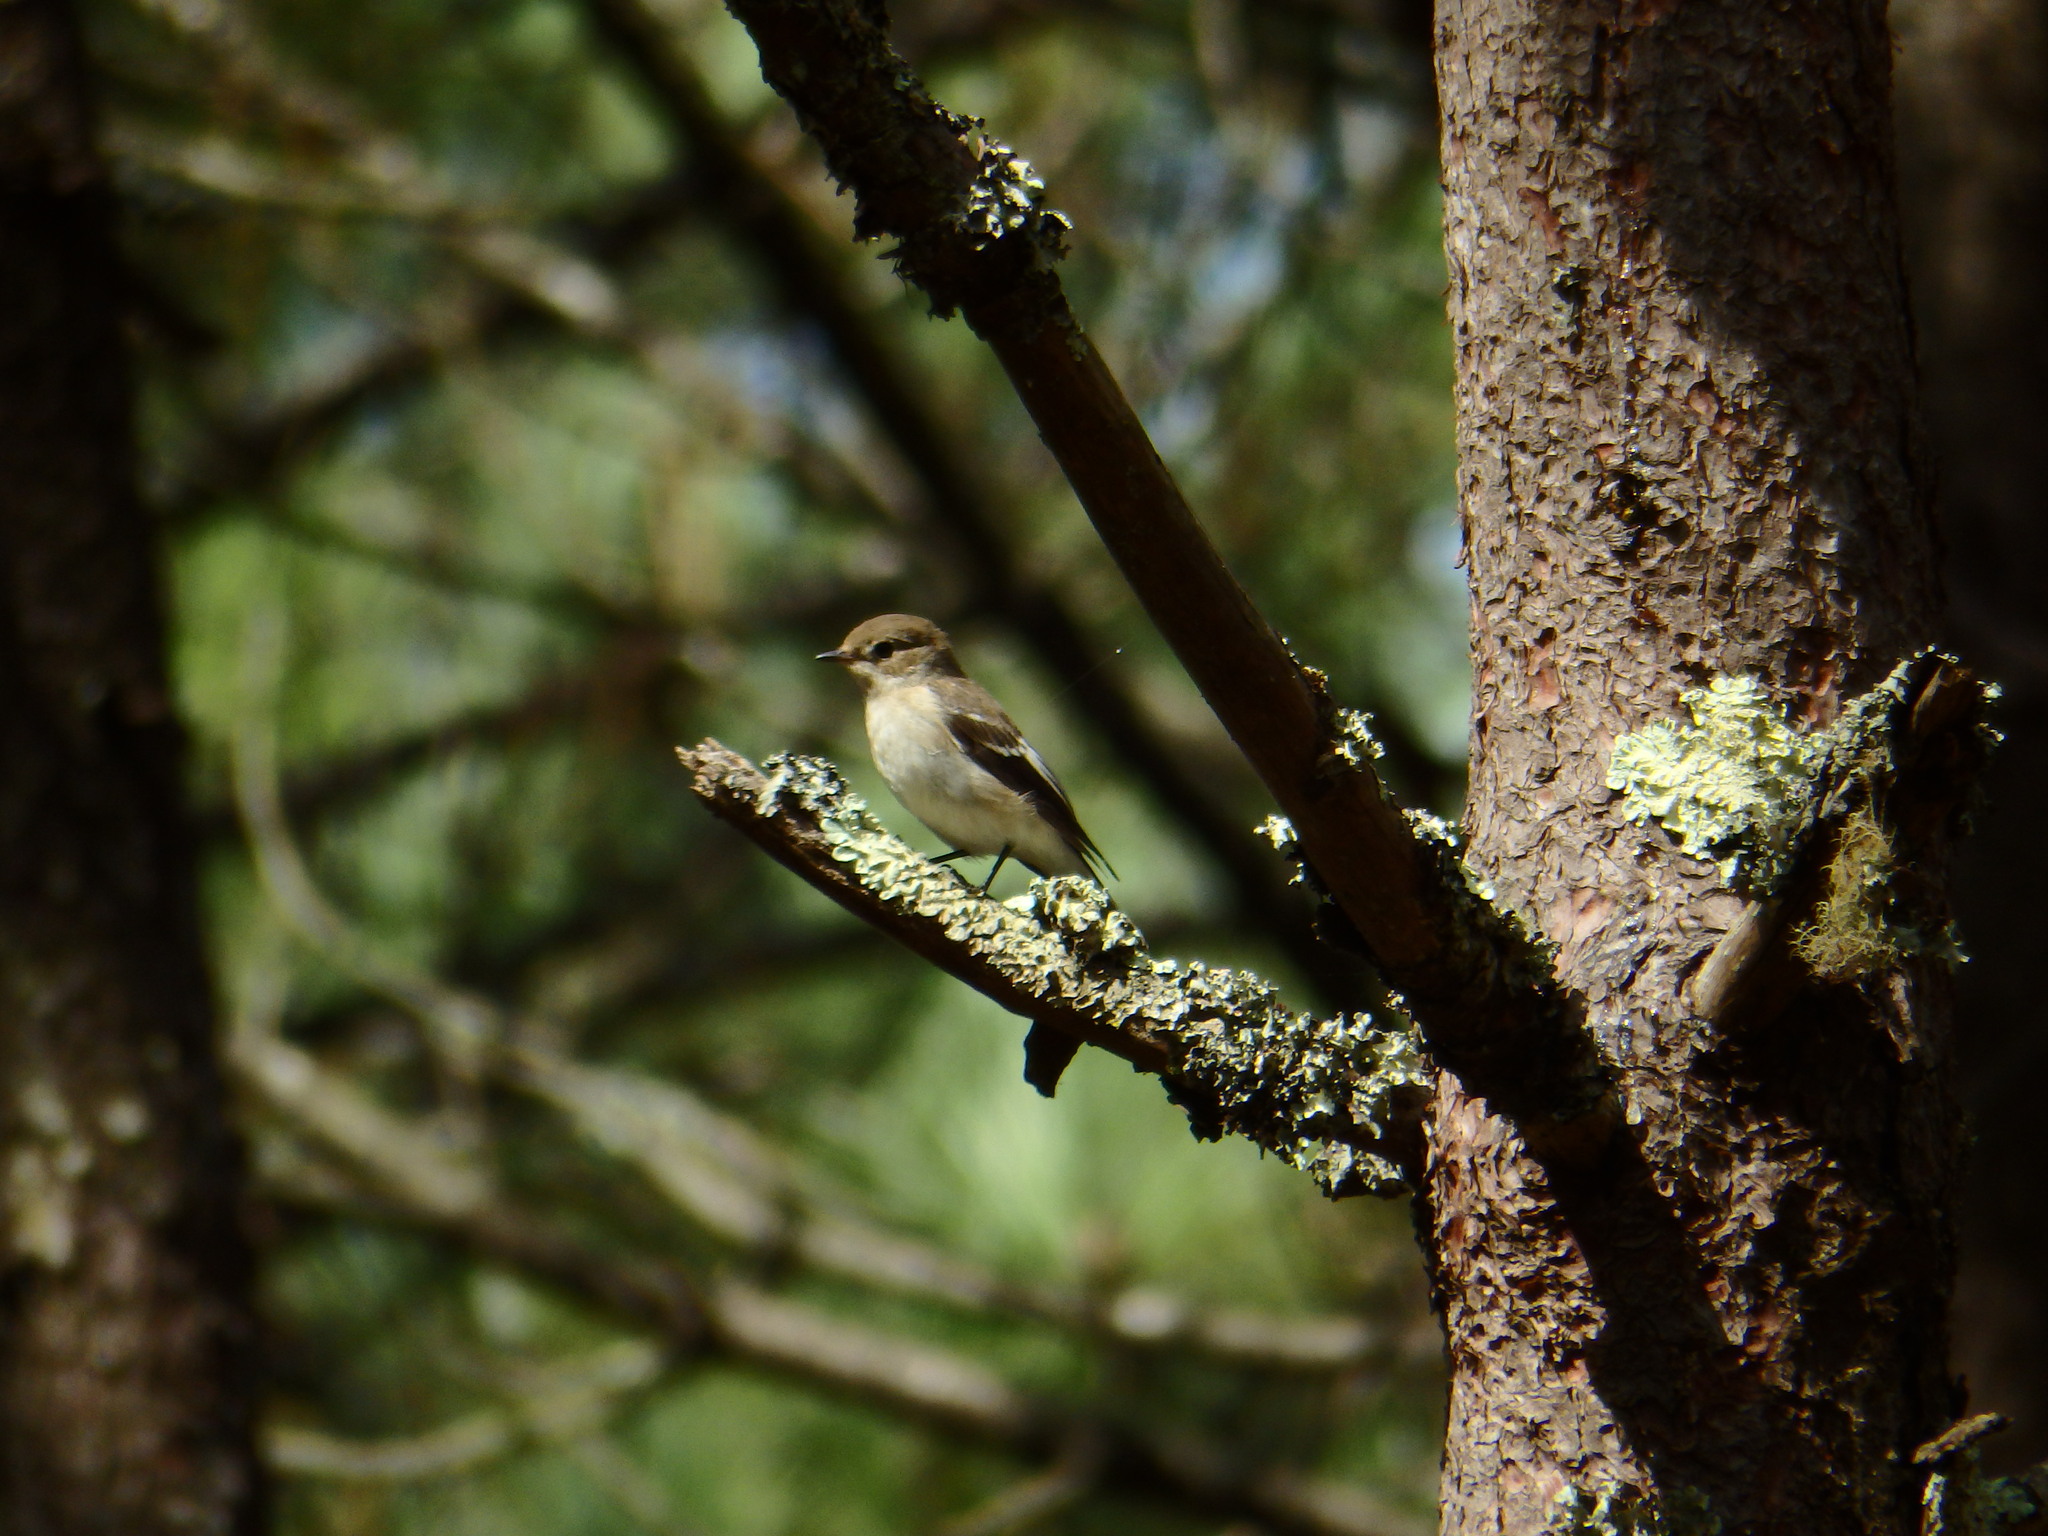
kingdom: Animalia
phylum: Chordata
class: Aves
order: Passeriformes
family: Muscicapidae
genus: Ficedula
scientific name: Ficedula hypoleuca
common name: European pied flycatcher
